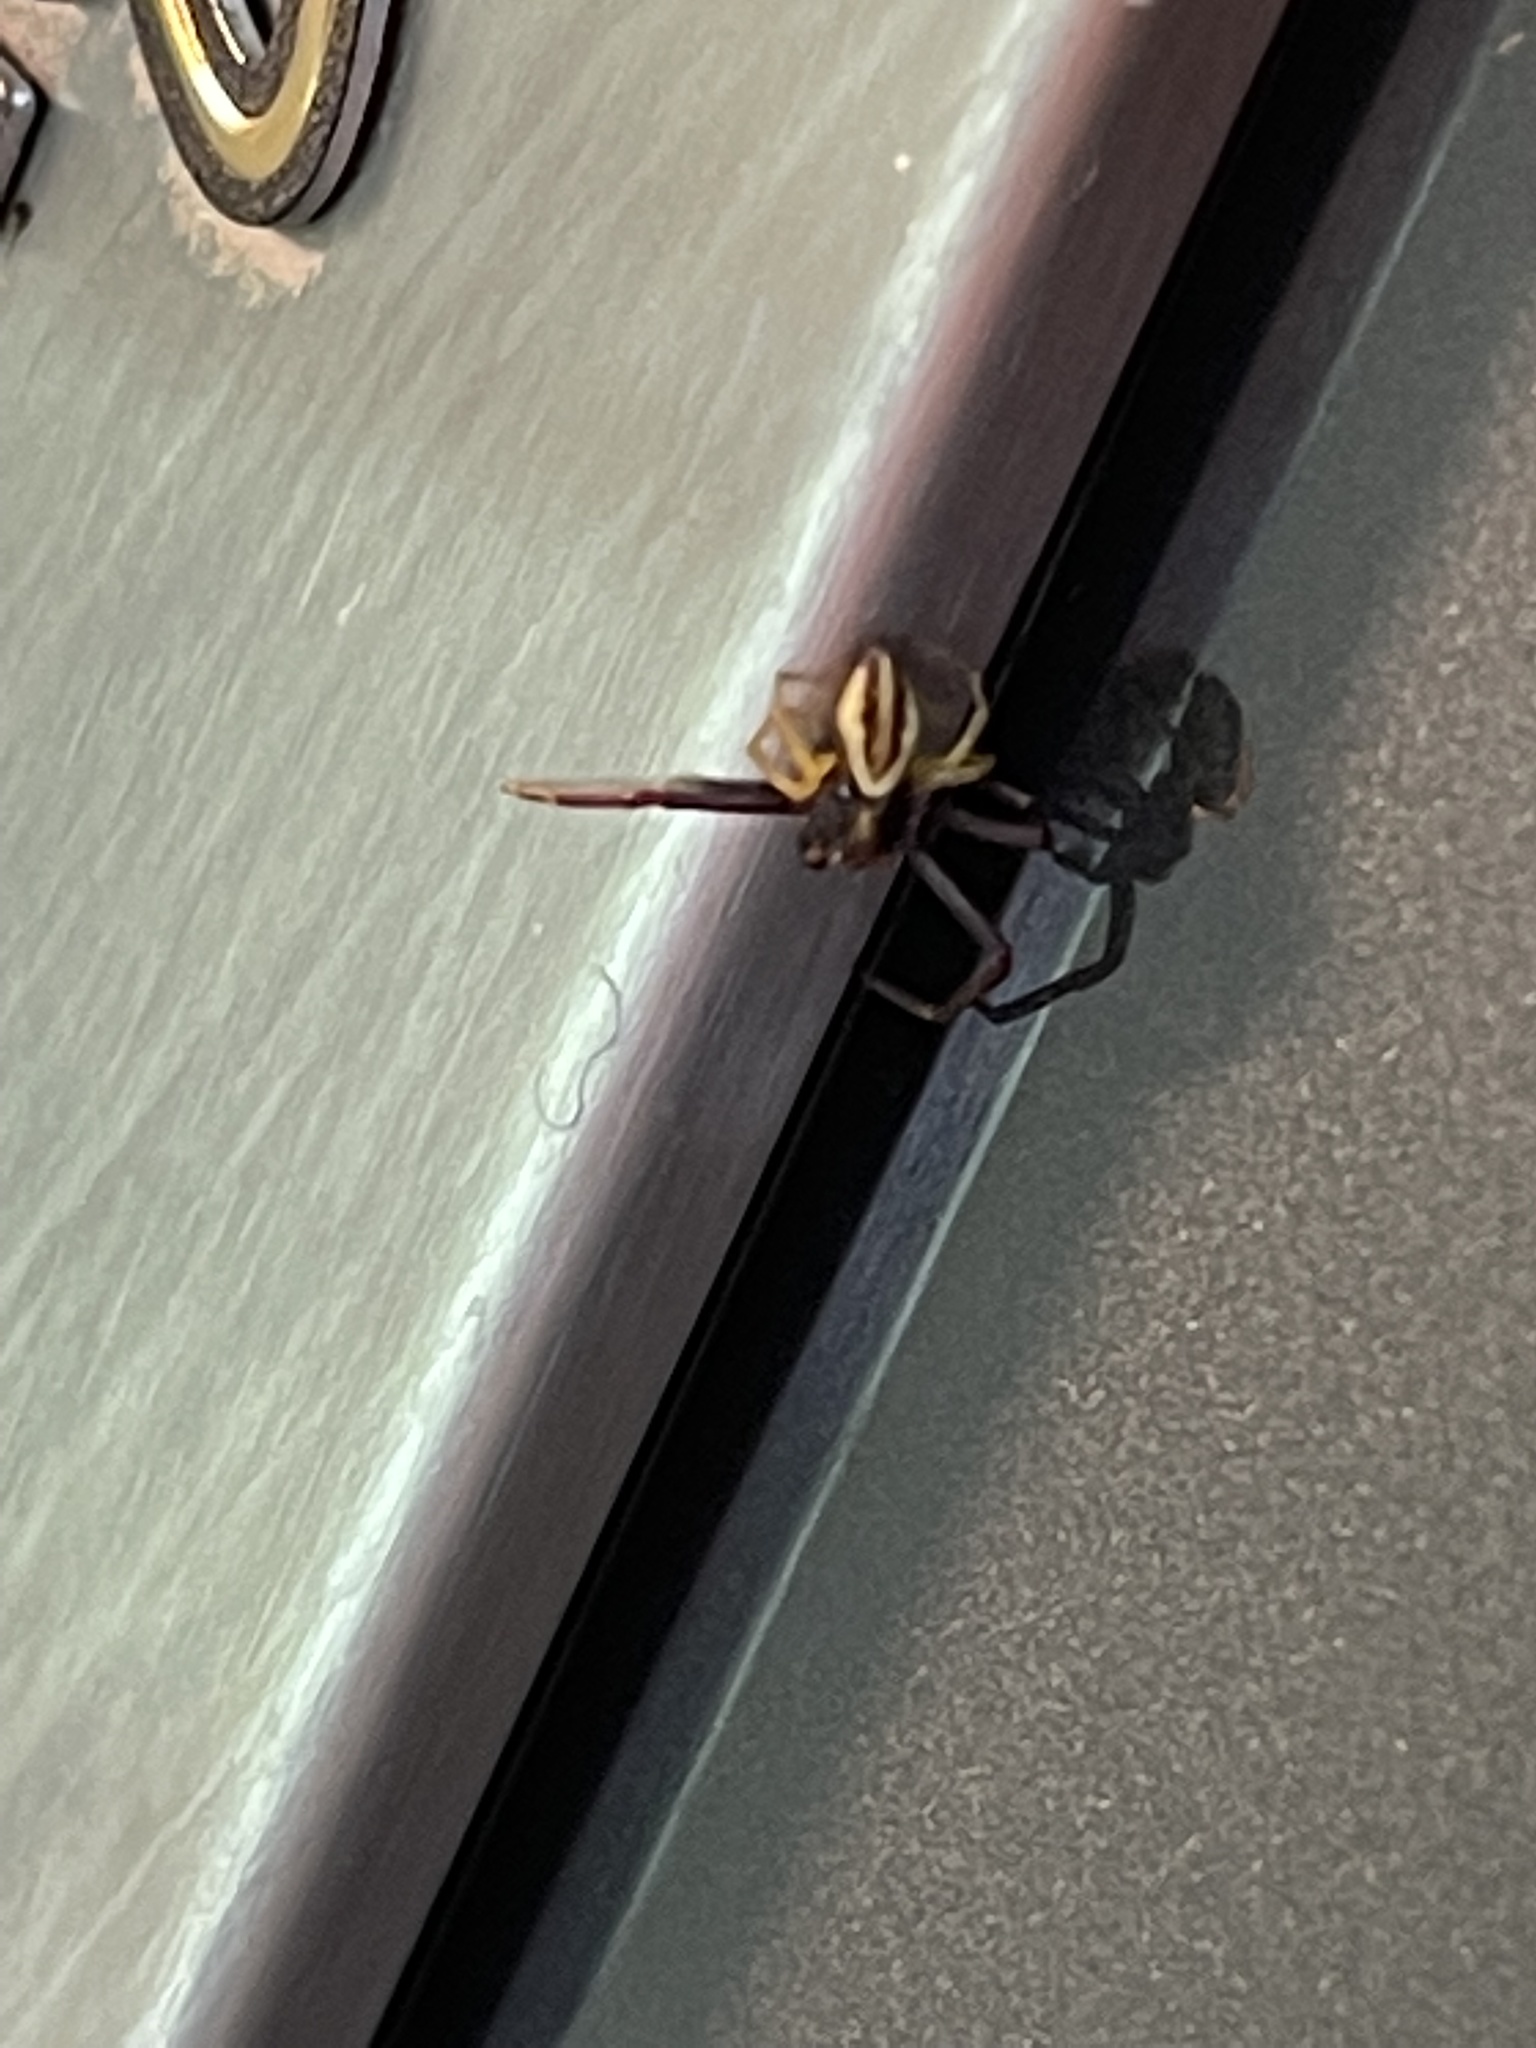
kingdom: Animalia
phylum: Arthropoda
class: Arachnida
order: Araneae
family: Thomisidae
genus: Misumena
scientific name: Misumena vatia
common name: Goldenrod crab spider
